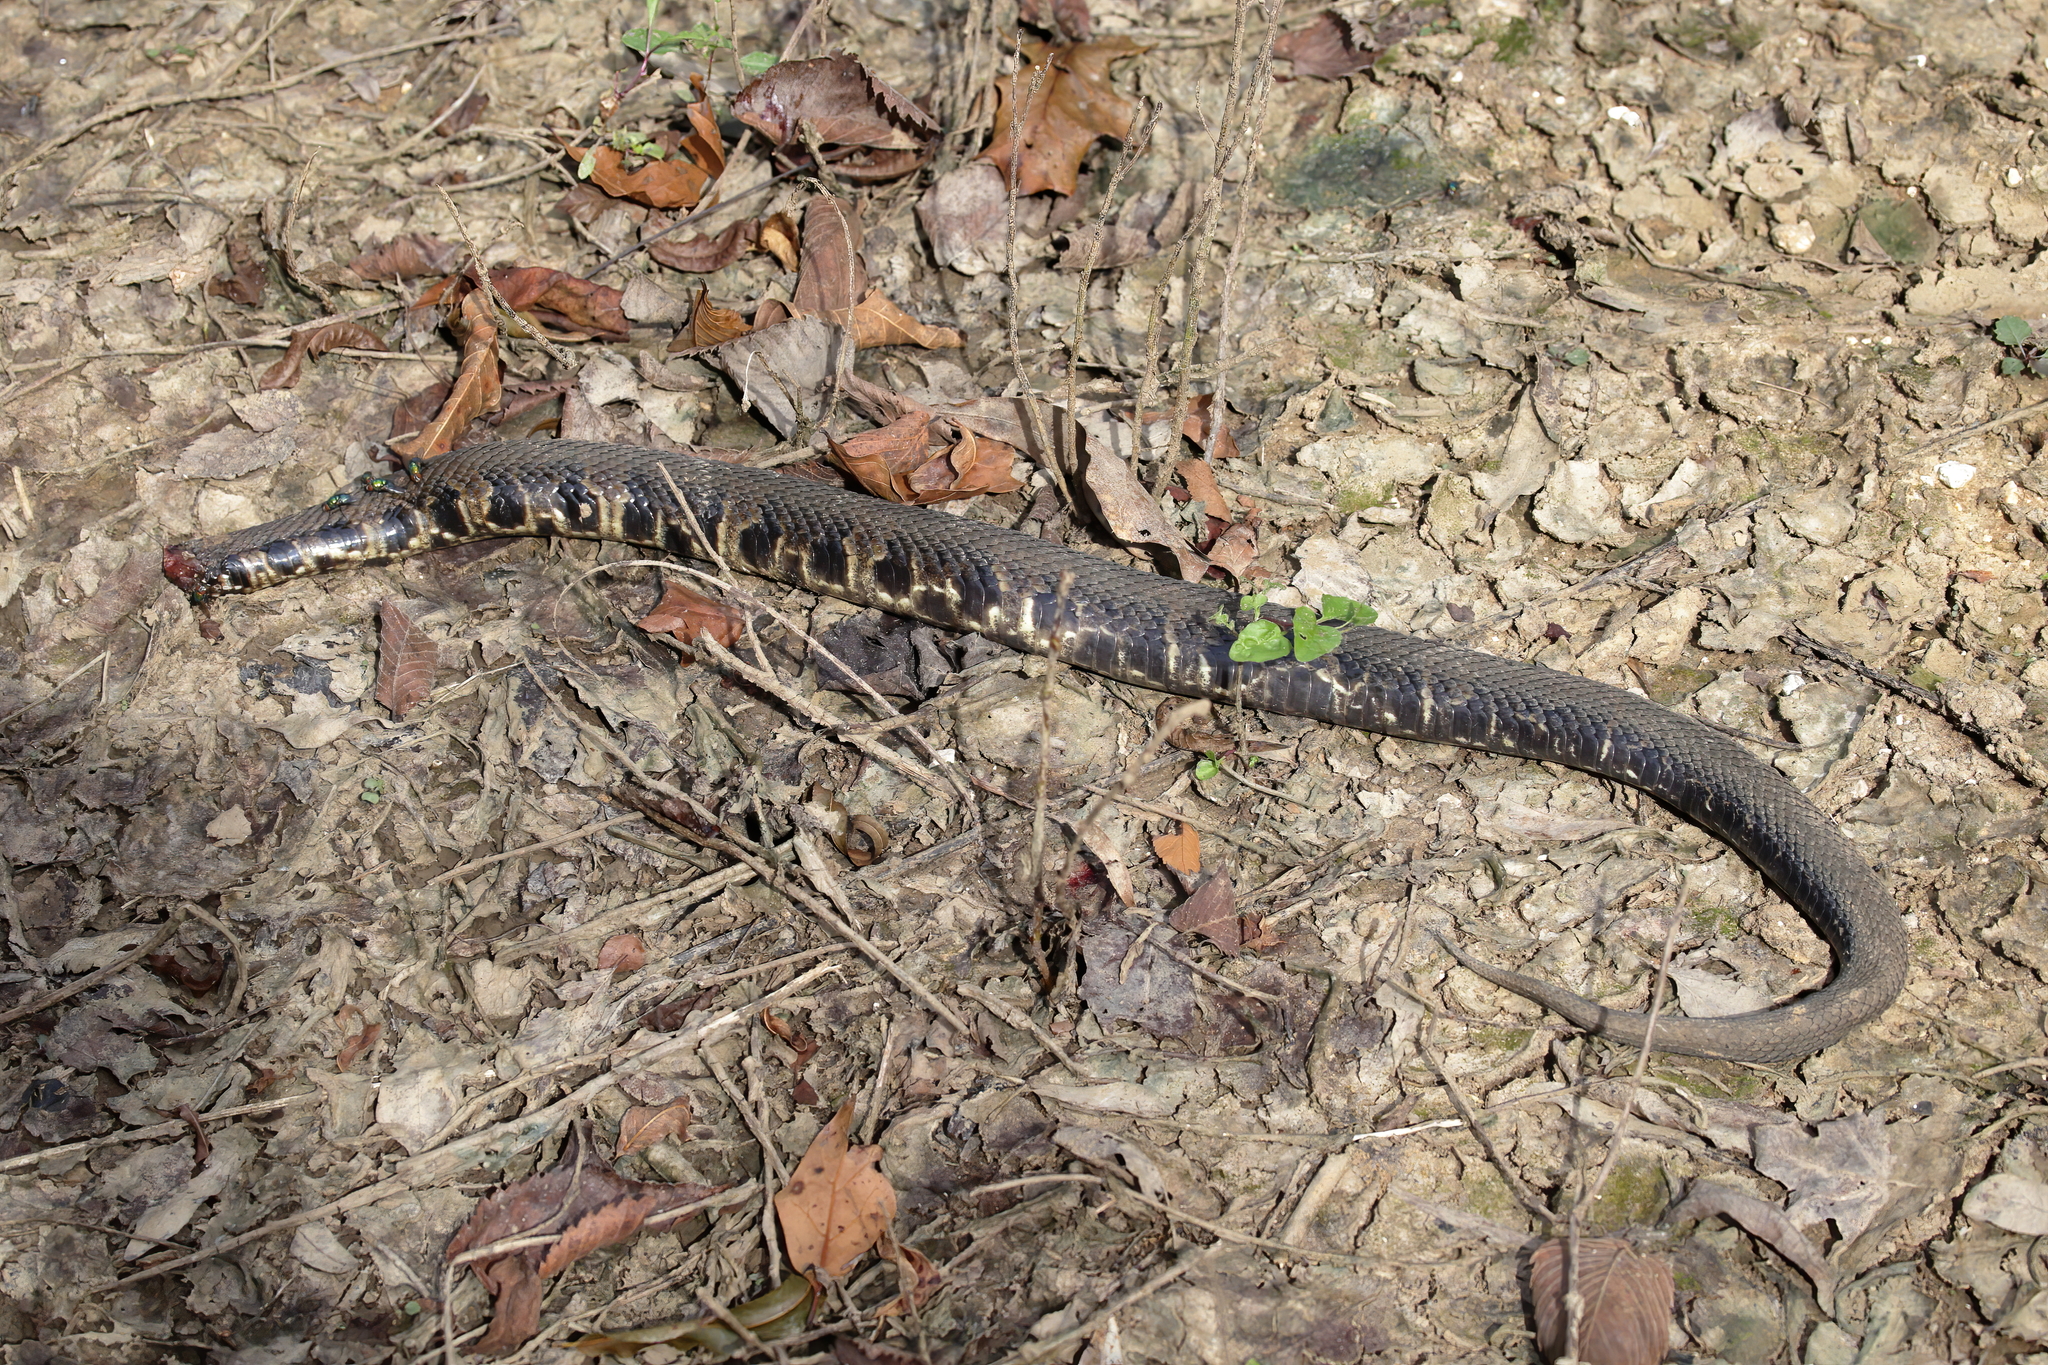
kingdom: Animalia
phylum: Chordata
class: Squamata
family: Viperidae
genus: Agkistrodon
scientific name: Agkistrodon piscivorus
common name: Cottonmouth
